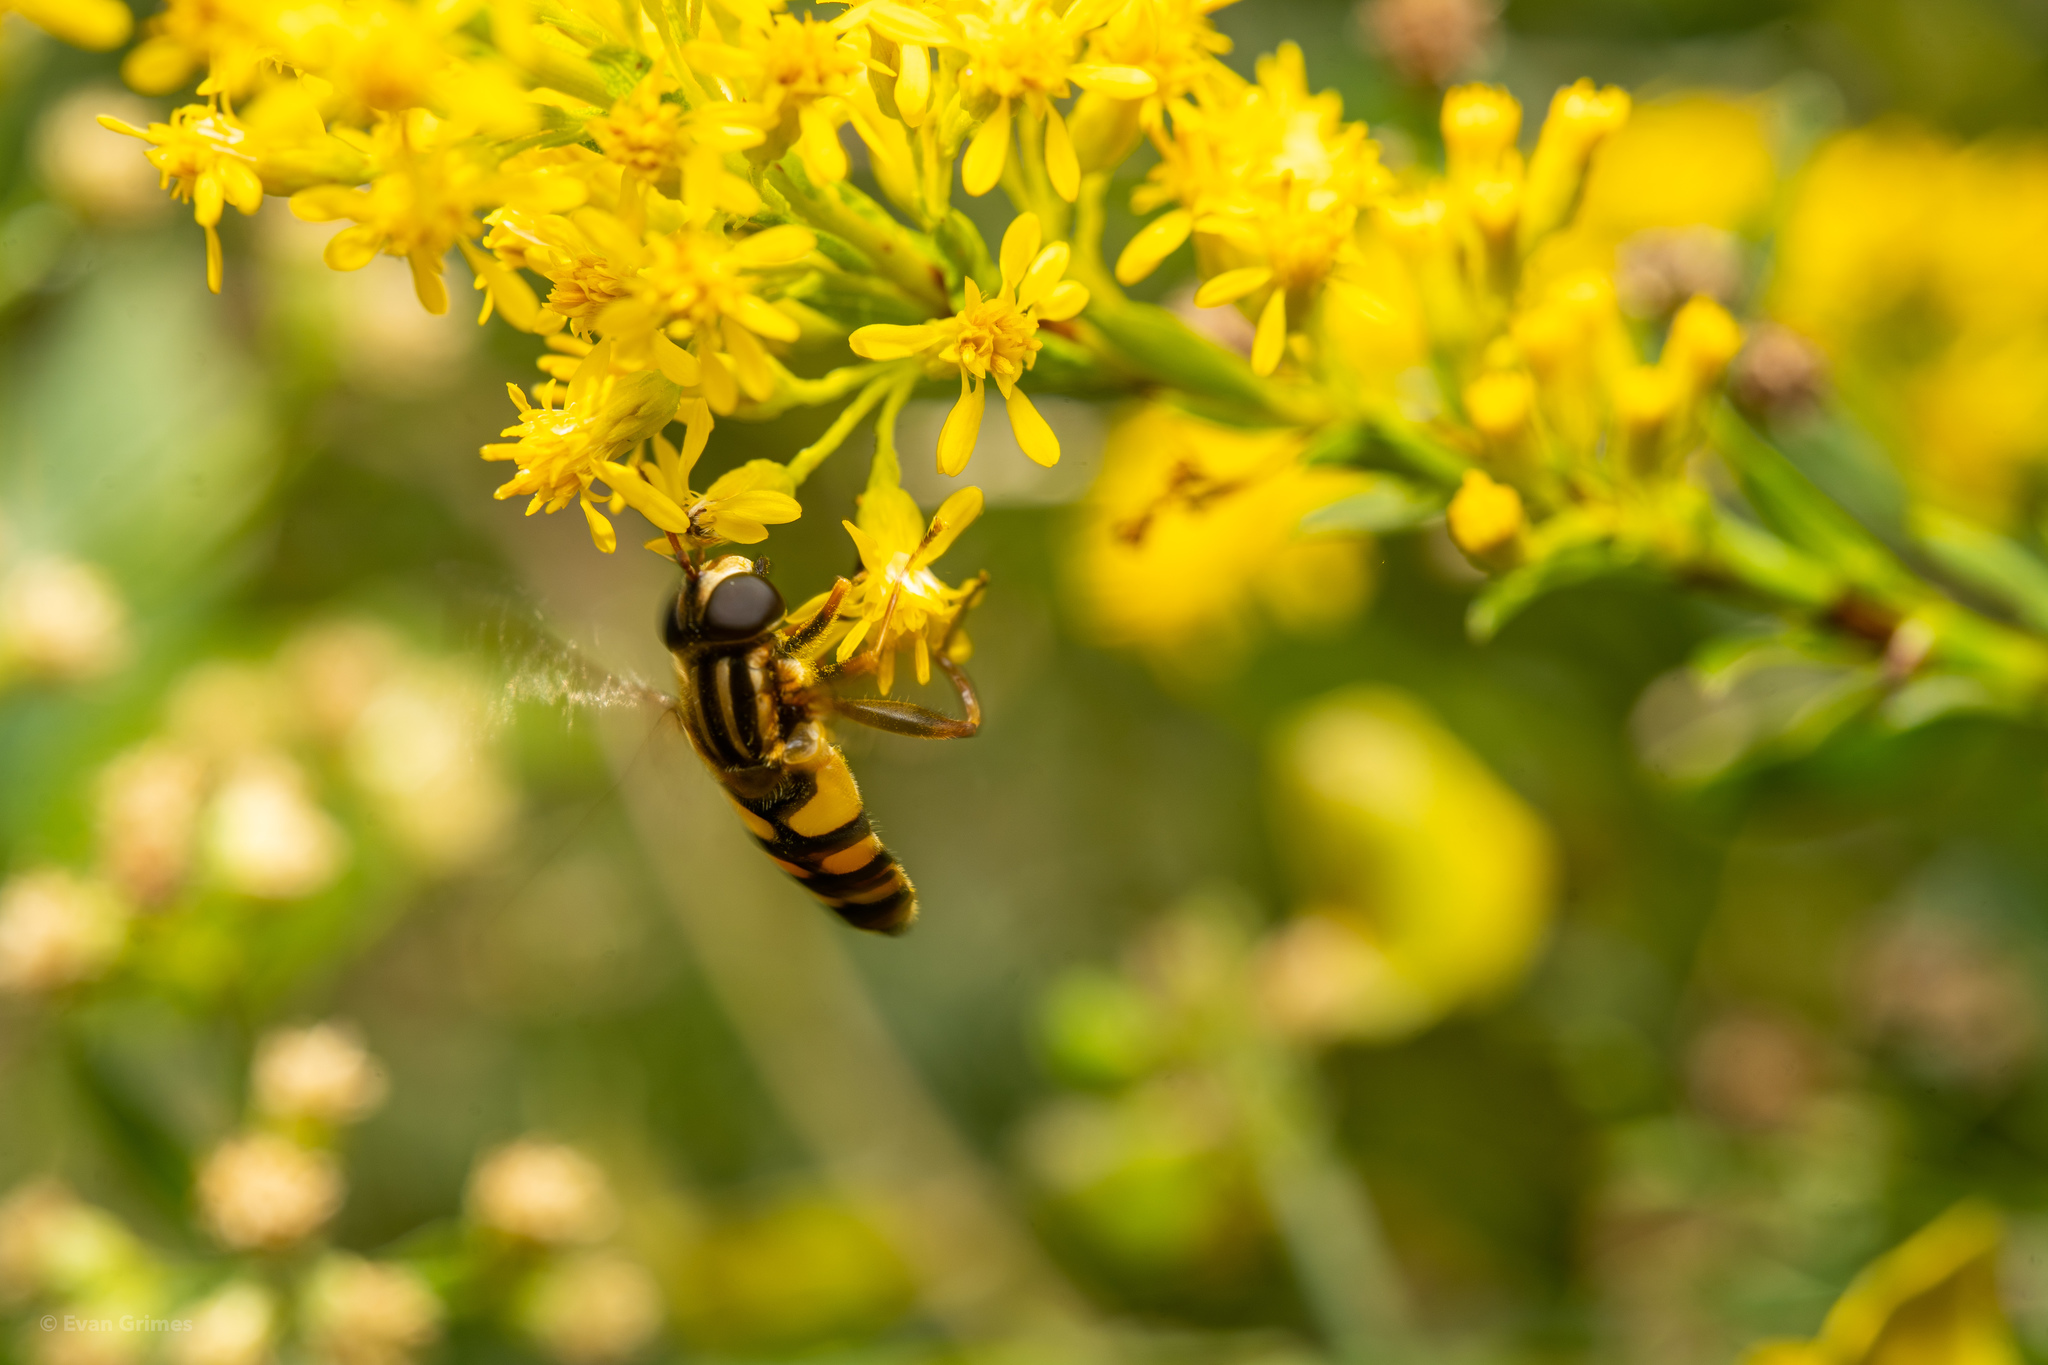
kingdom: Animalia
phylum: Arthropoda
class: Insecta
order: Diptera
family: Syrphidae
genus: Helophilus
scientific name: Helophilus fasciatus
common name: Narrow-headed marsh fly
